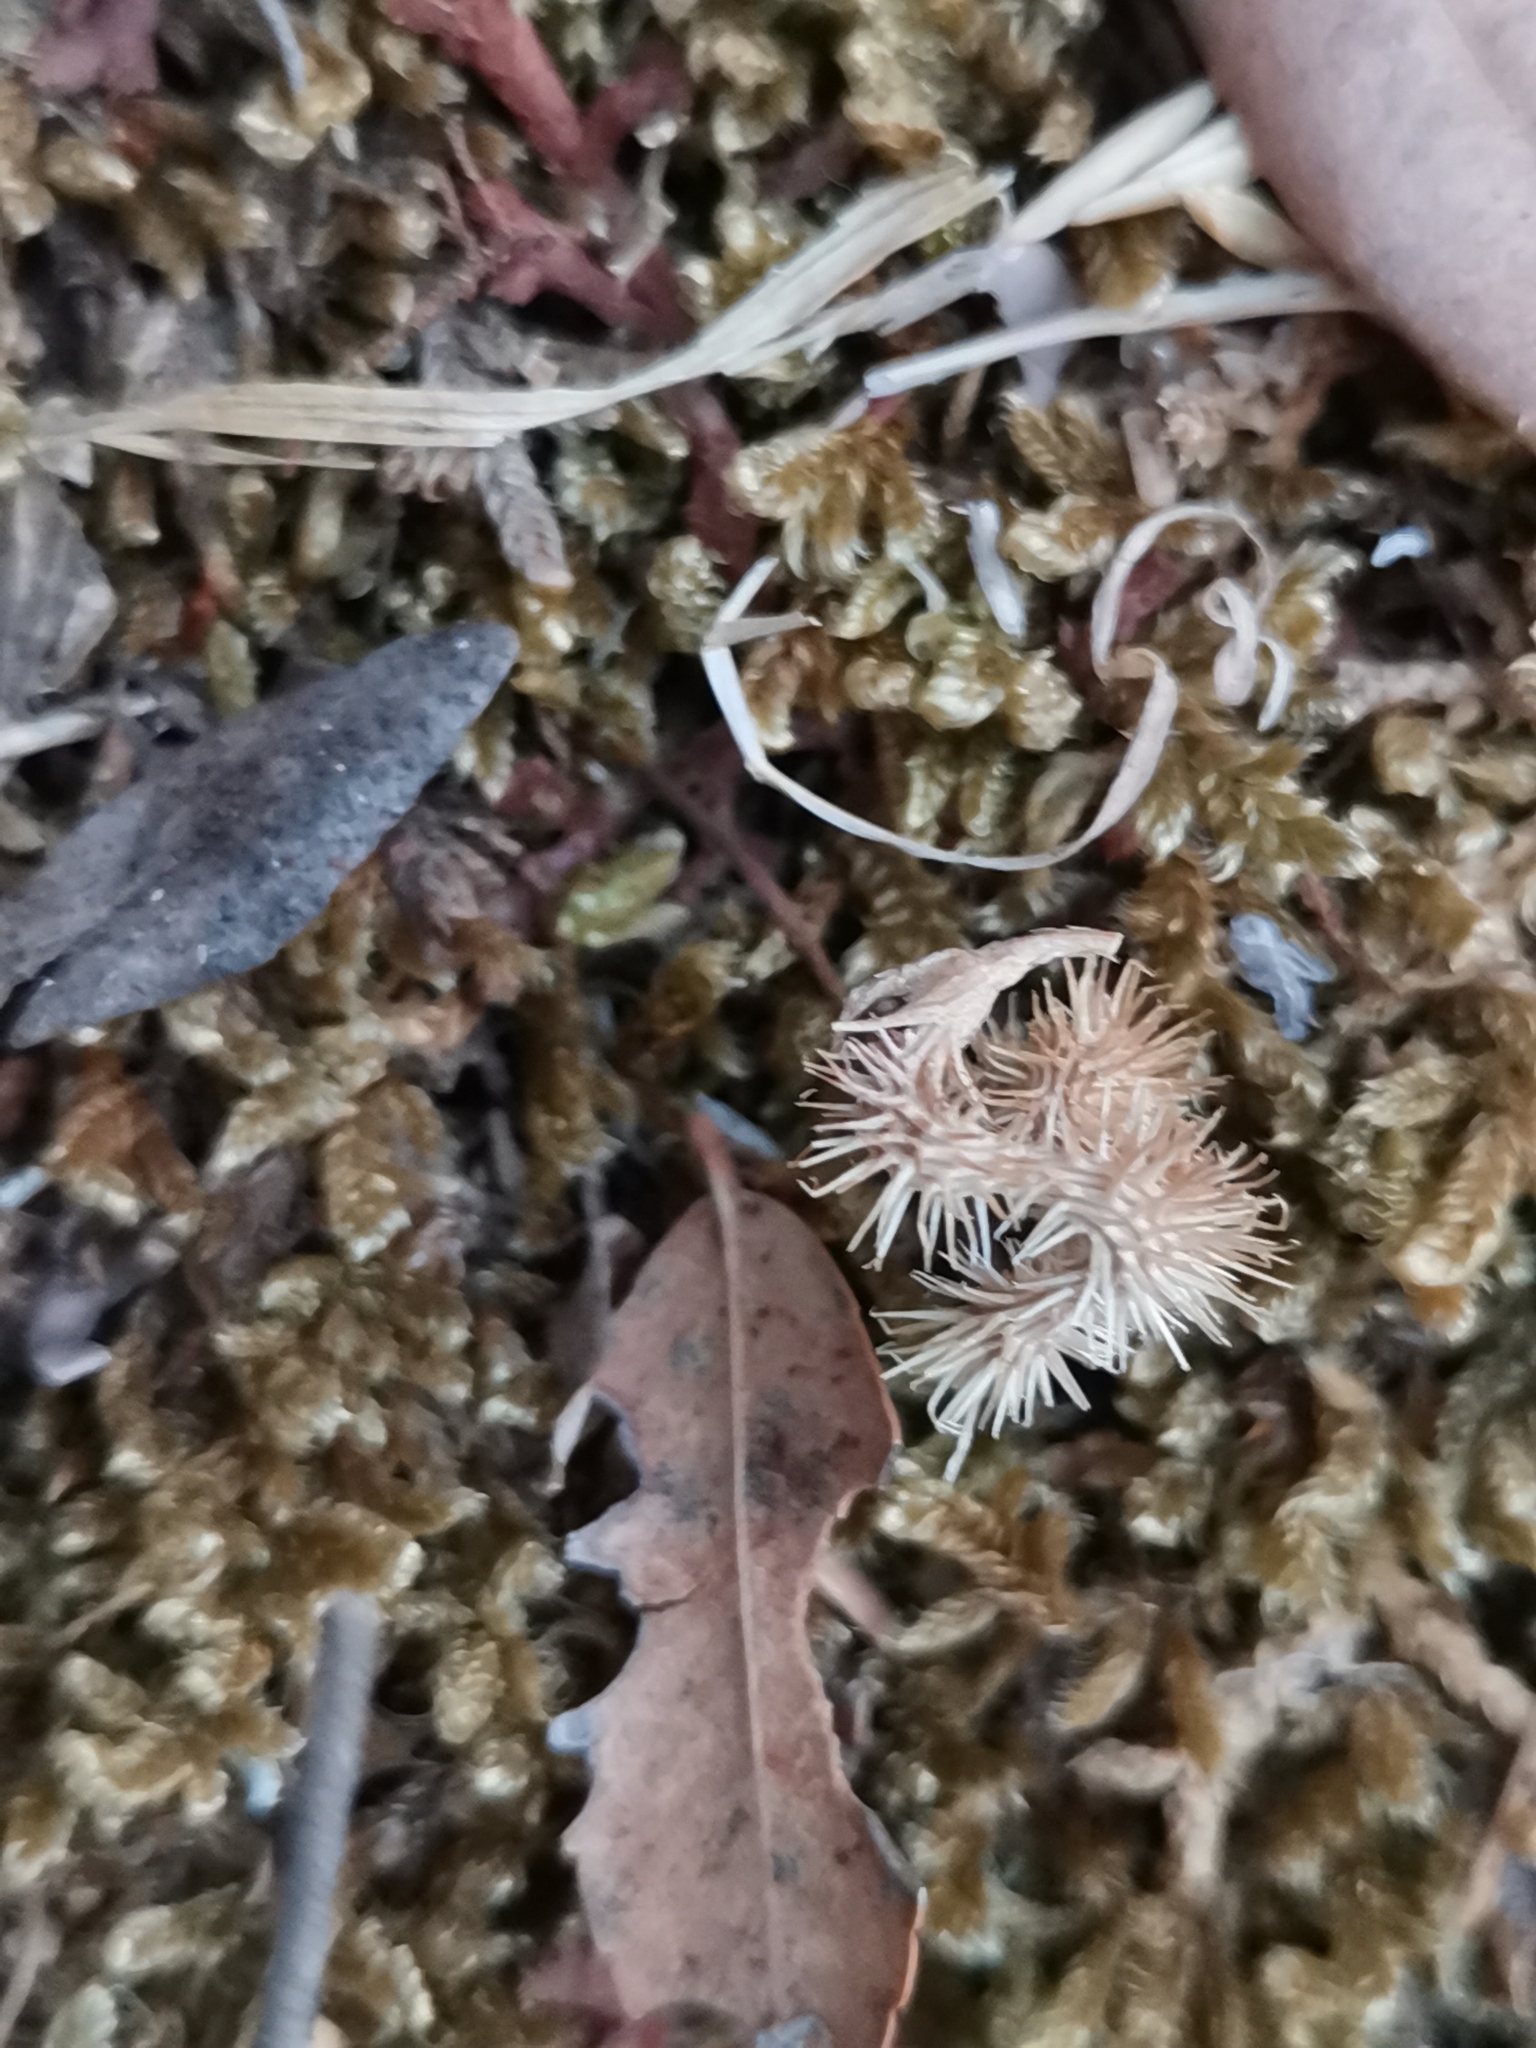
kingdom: Plantae
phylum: Tracheophyta
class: Magnoliopsida
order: Fabales
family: Fabaceae
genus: Scorpiurus
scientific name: Scorpiurus muricatus
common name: Caterpillar-plant
